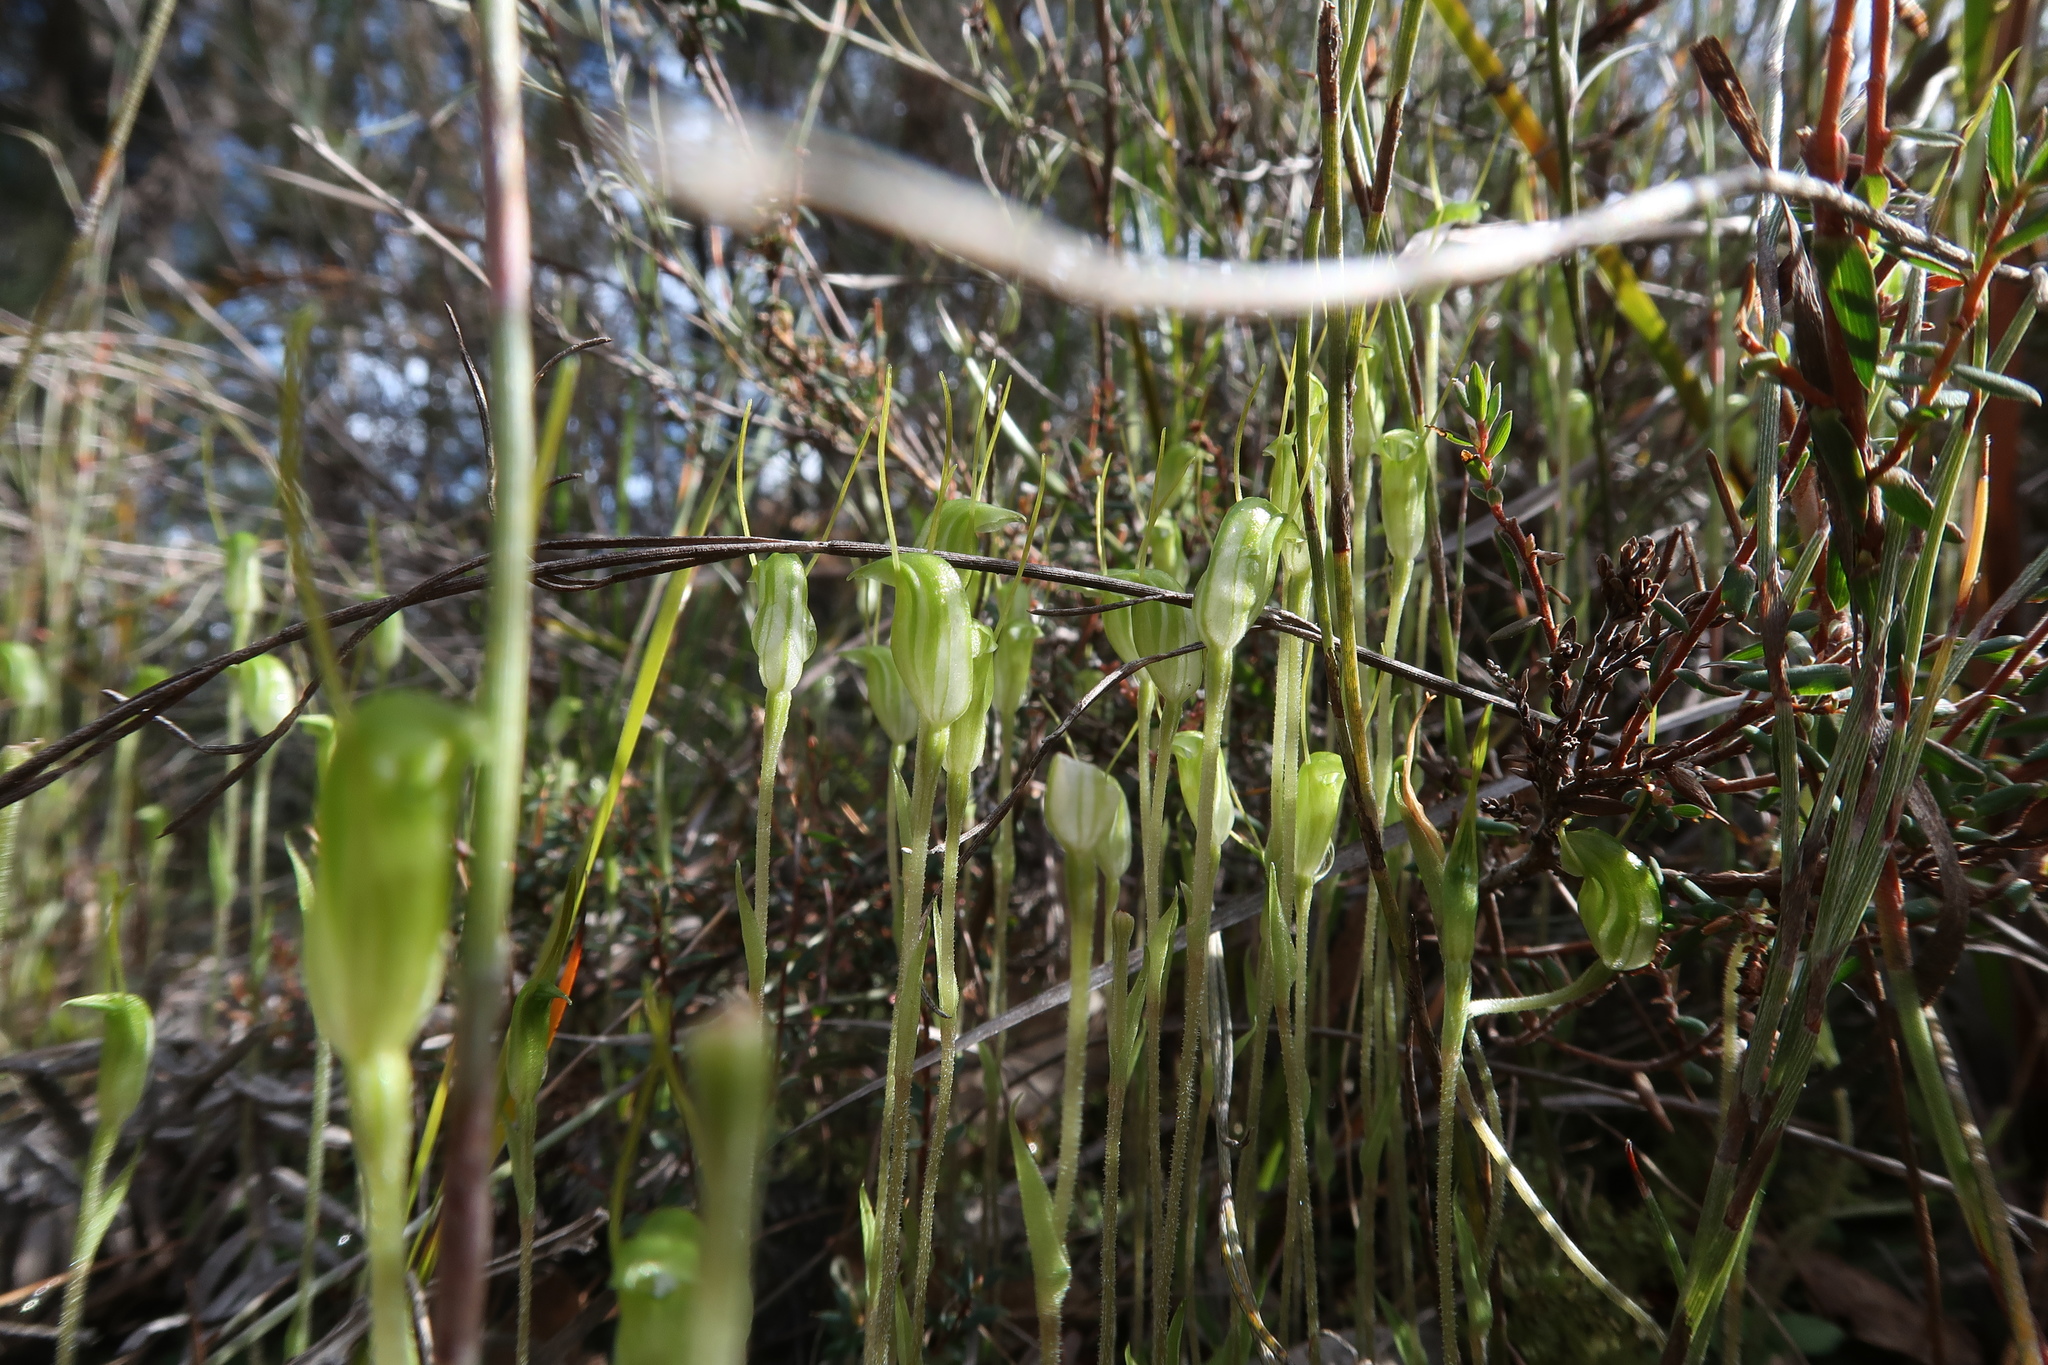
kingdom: Plantae
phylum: Tracheophyta
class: Liliopsida
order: Asparagales
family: Orchidaceae
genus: Pterostylis
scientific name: Pterostylis nana
